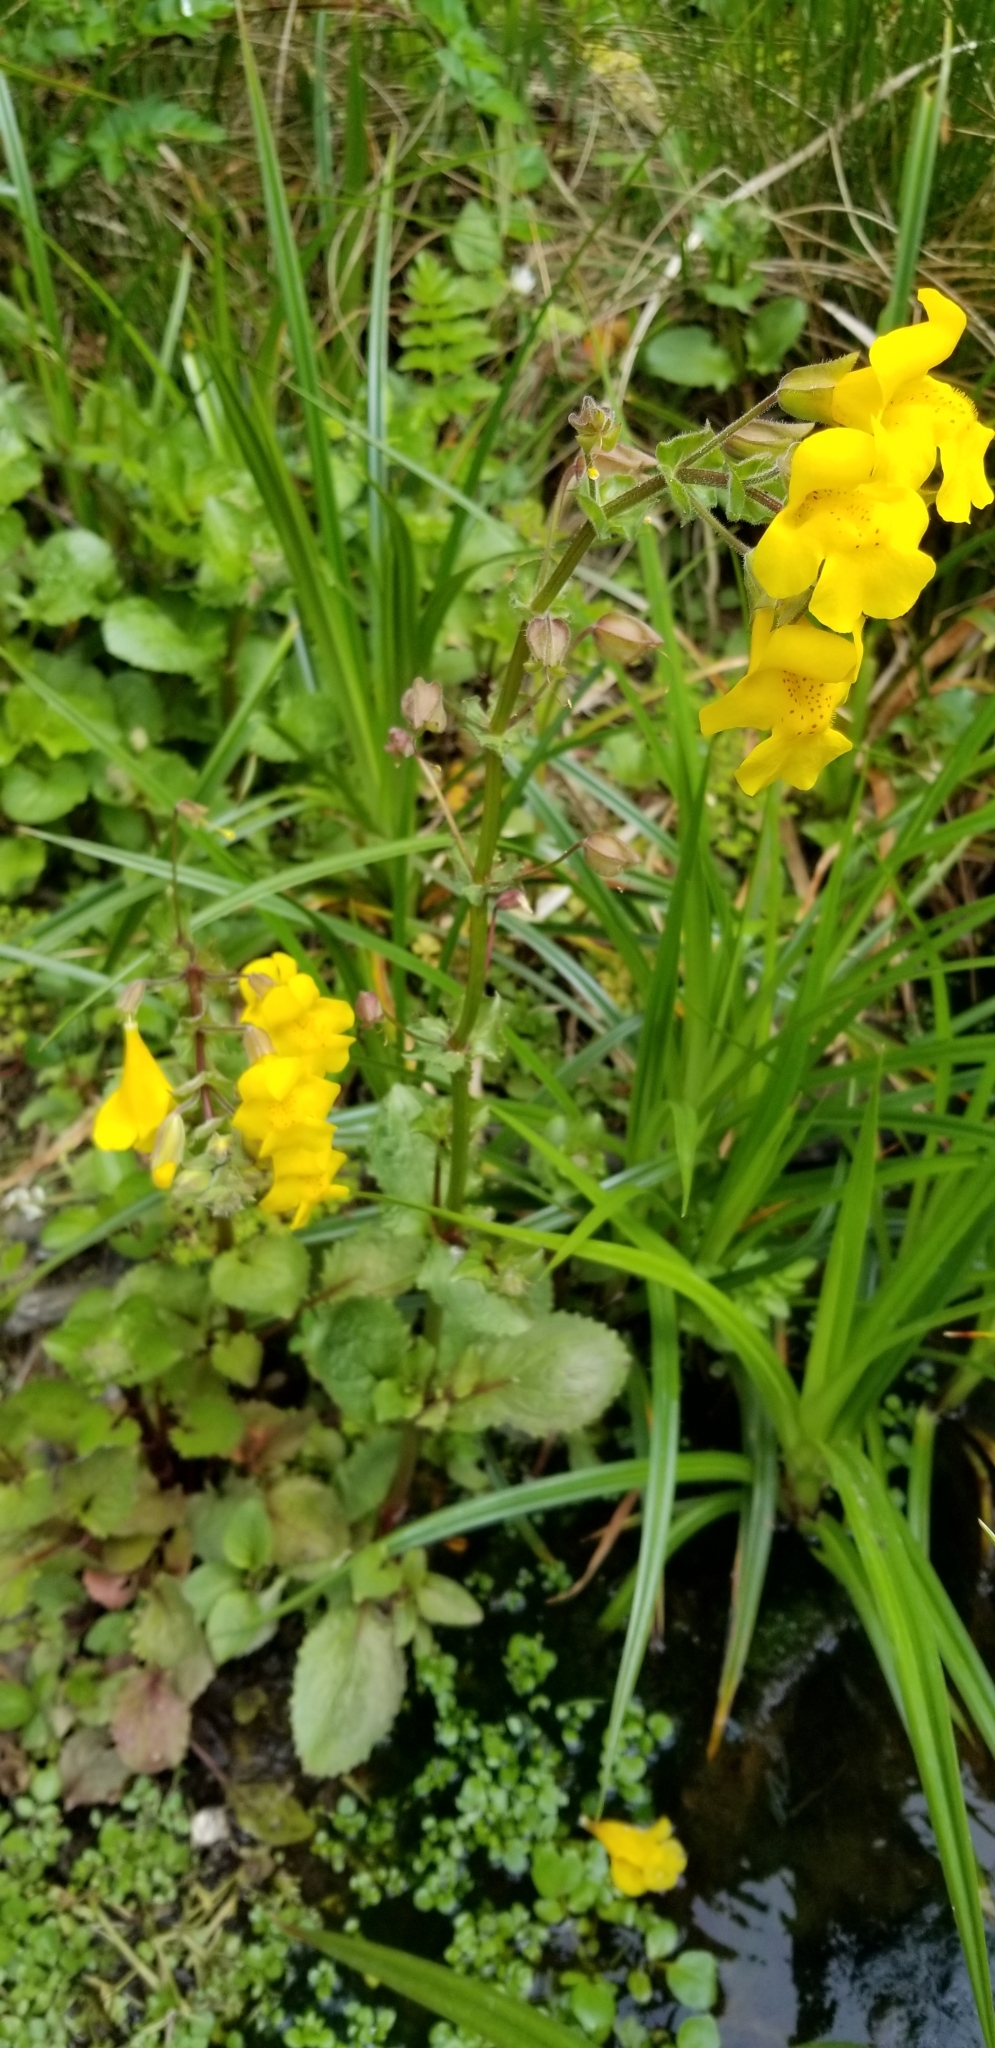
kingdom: Plantae
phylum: Tracheophyta
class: Magnoliopsida
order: Lamiales
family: Phrymaceae
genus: Erythranthe
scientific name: Erythranthe guttata
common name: Monkeyflower
